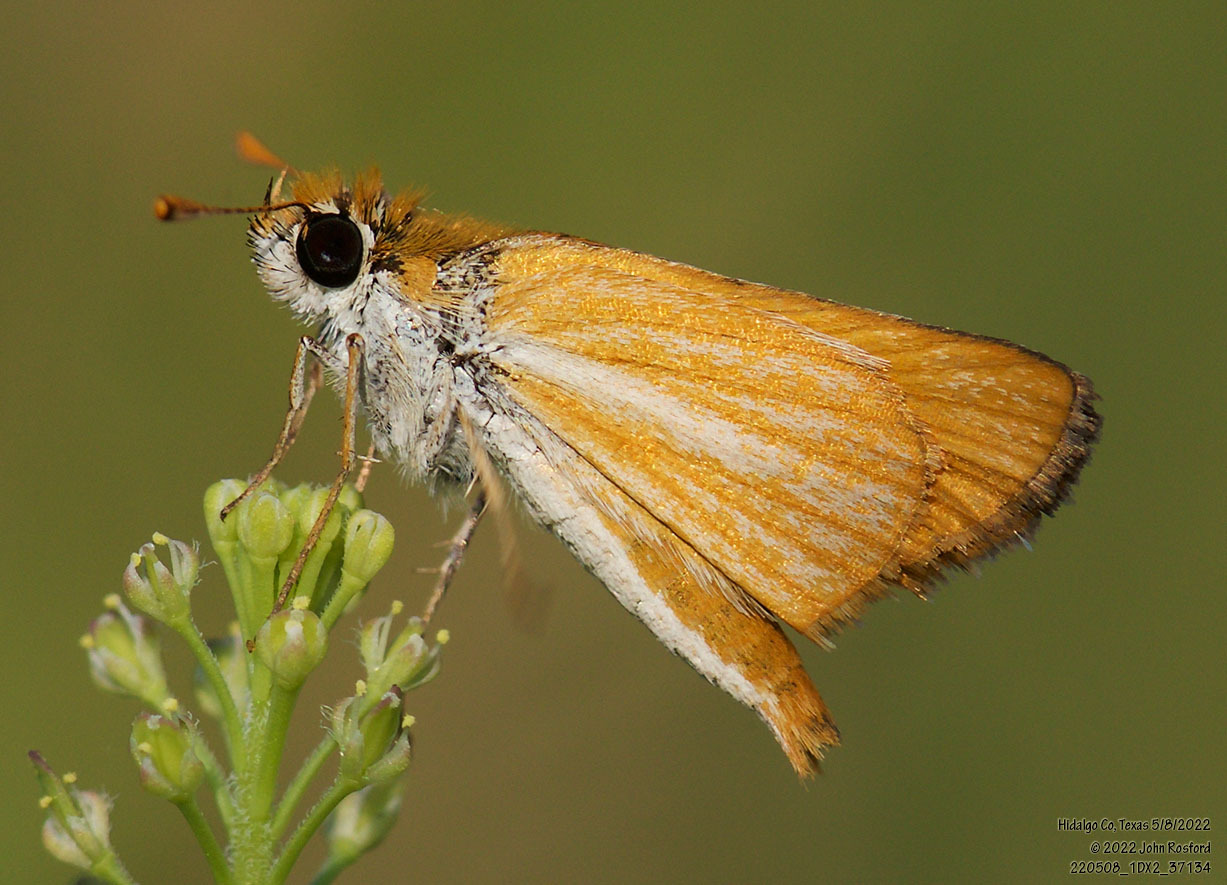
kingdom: Animalia
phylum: Arthropoda
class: Insecta
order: Lepidoptera
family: Hesperiidae
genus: Copaeodes
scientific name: Copaeodes minima
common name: Southern skipperling
